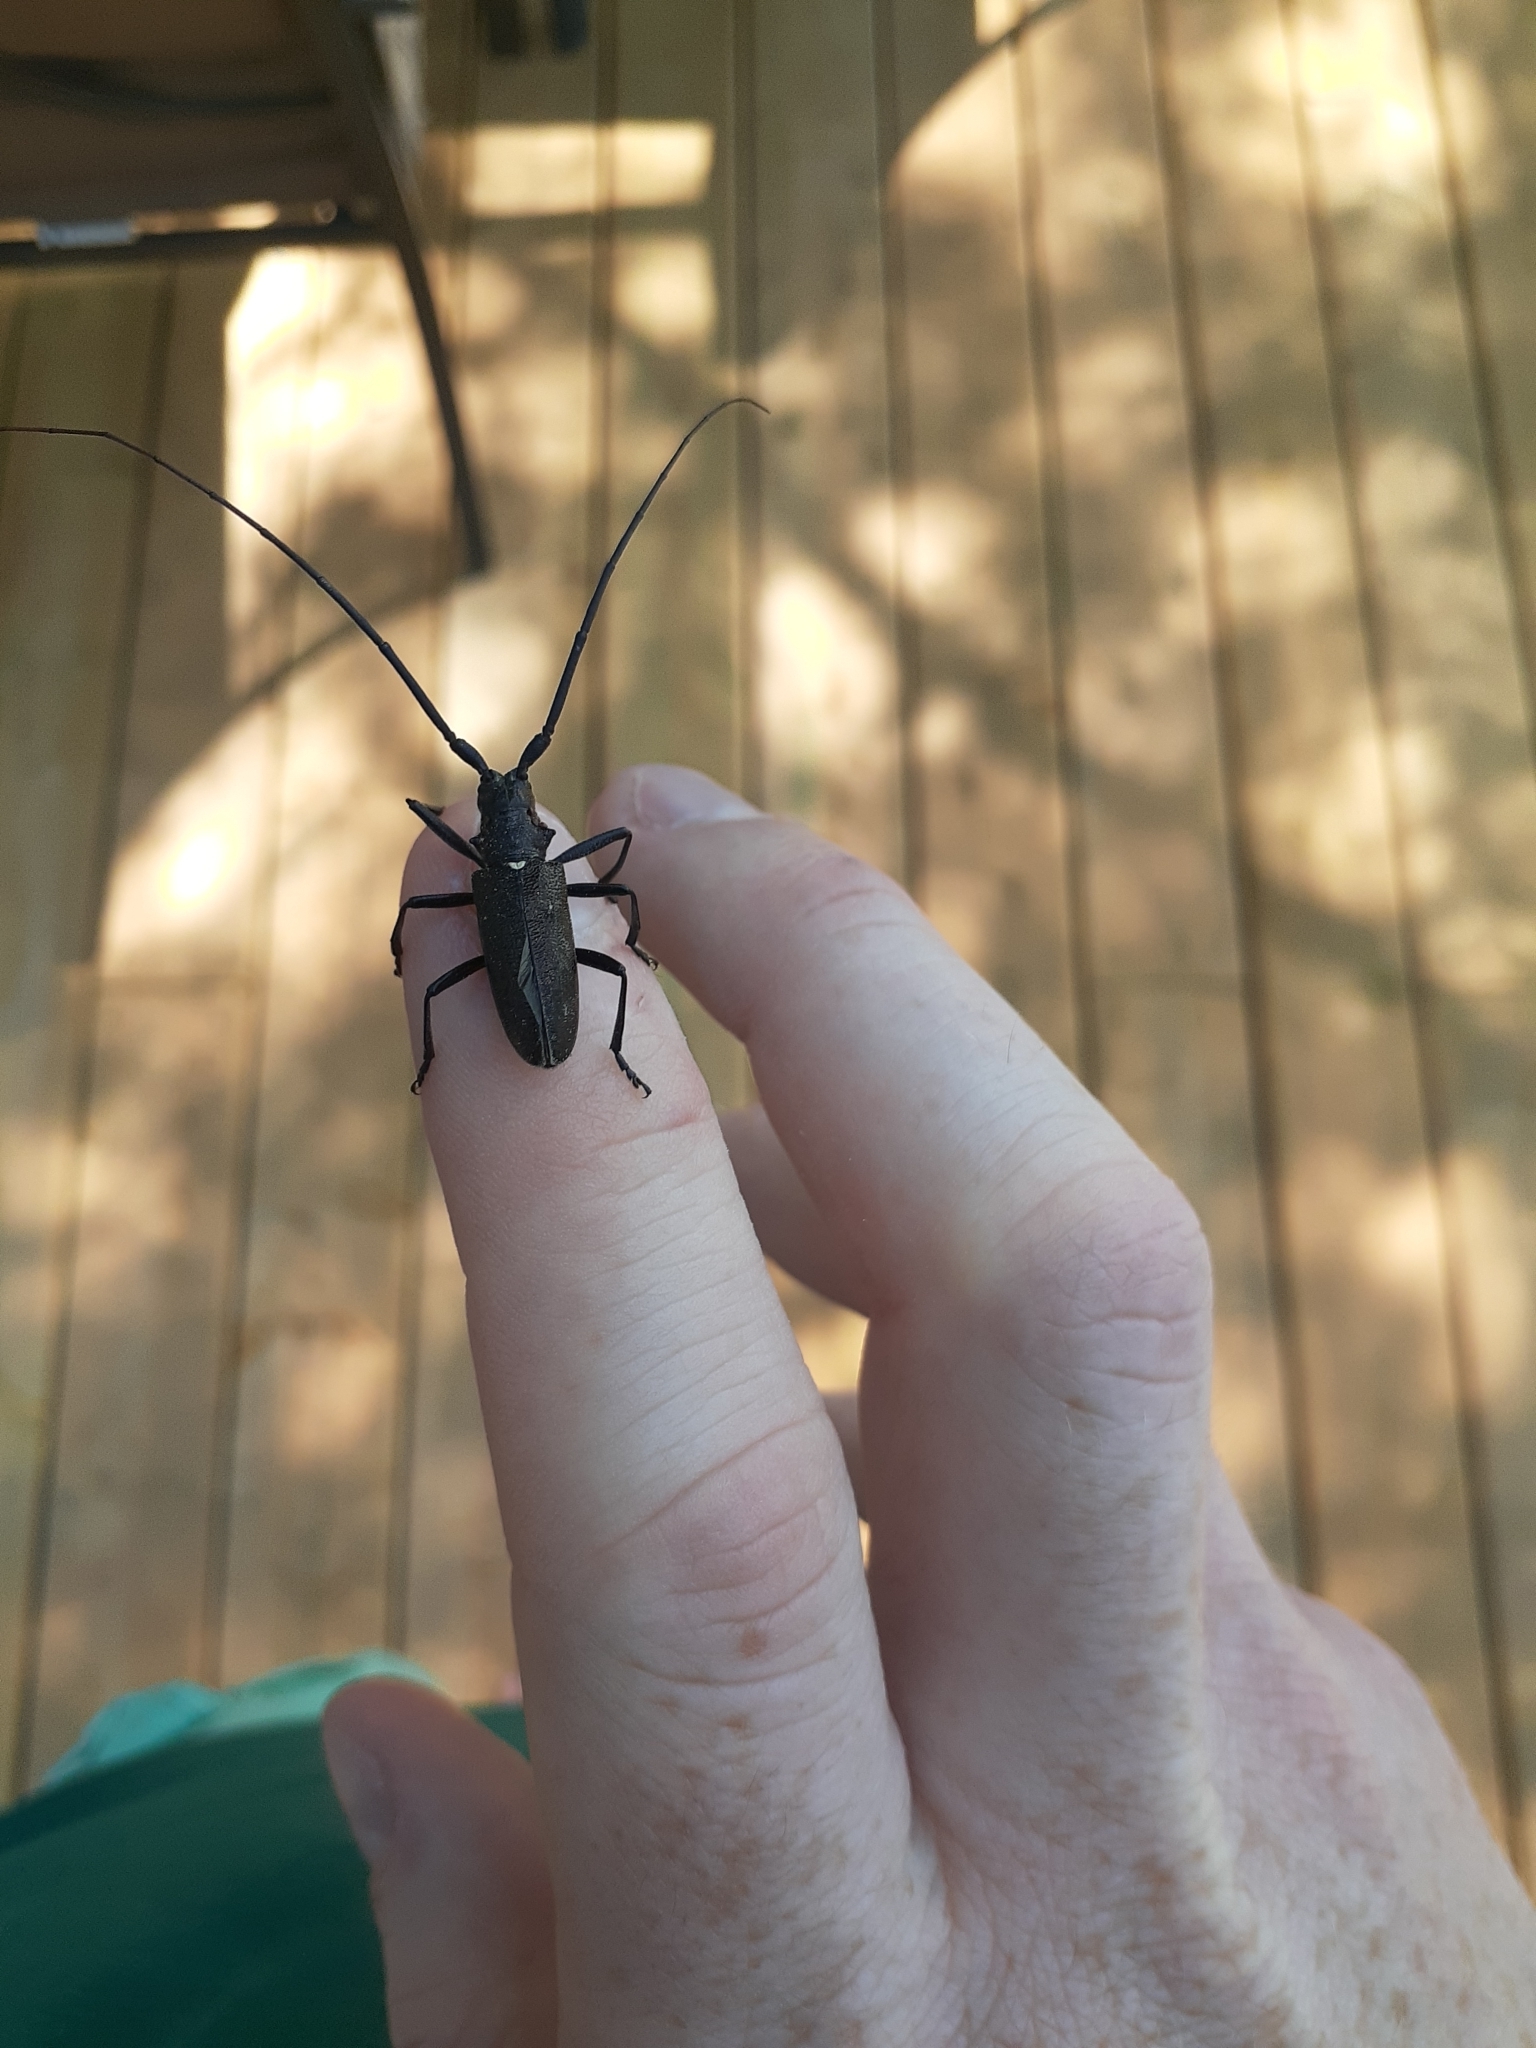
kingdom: Animalia
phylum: Arthropoda
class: Insecta
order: Coleoptera
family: Cerambycidae
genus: Monochamus
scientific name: Monochamus scutellatus
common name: White-spotted sawyer beetle
